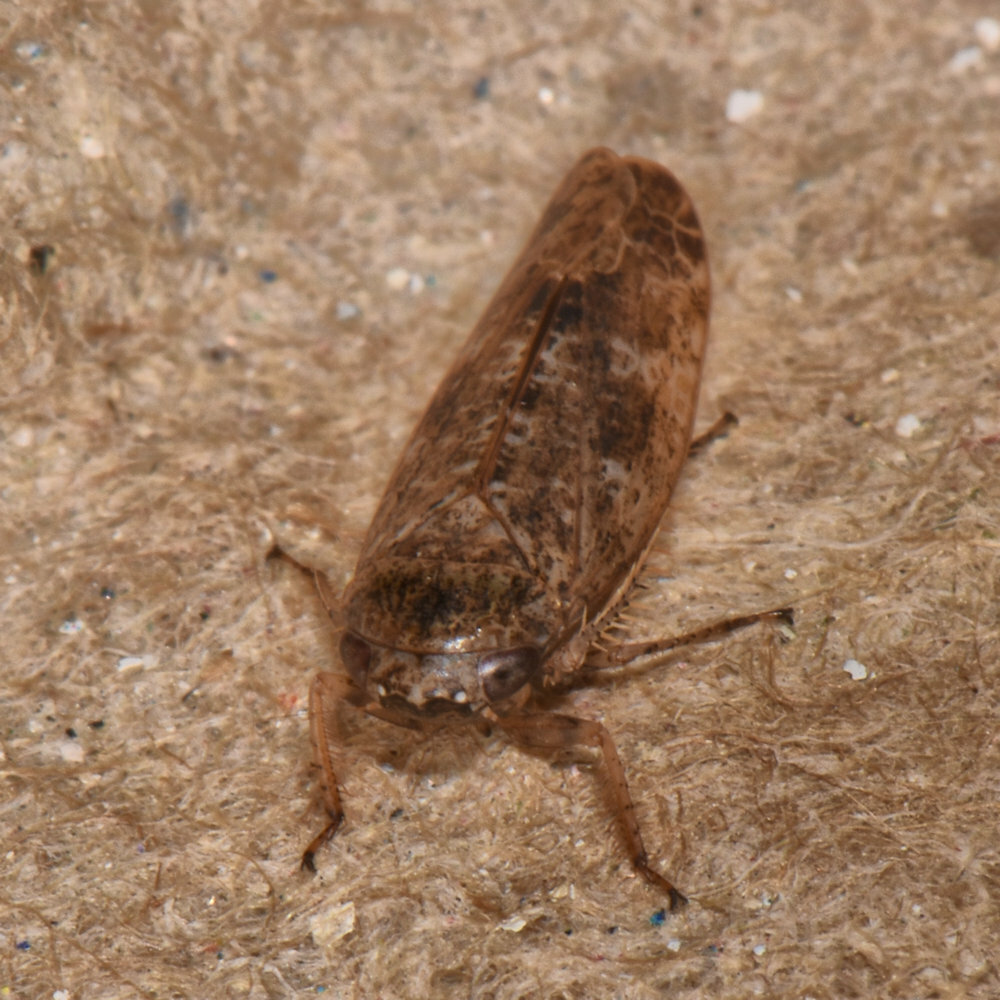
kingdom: Animalia
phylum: Arthropoda
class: Insecta
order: Hemiptera
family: Cicadellidae
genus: Allygidius
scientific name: Allygidius atomarius
